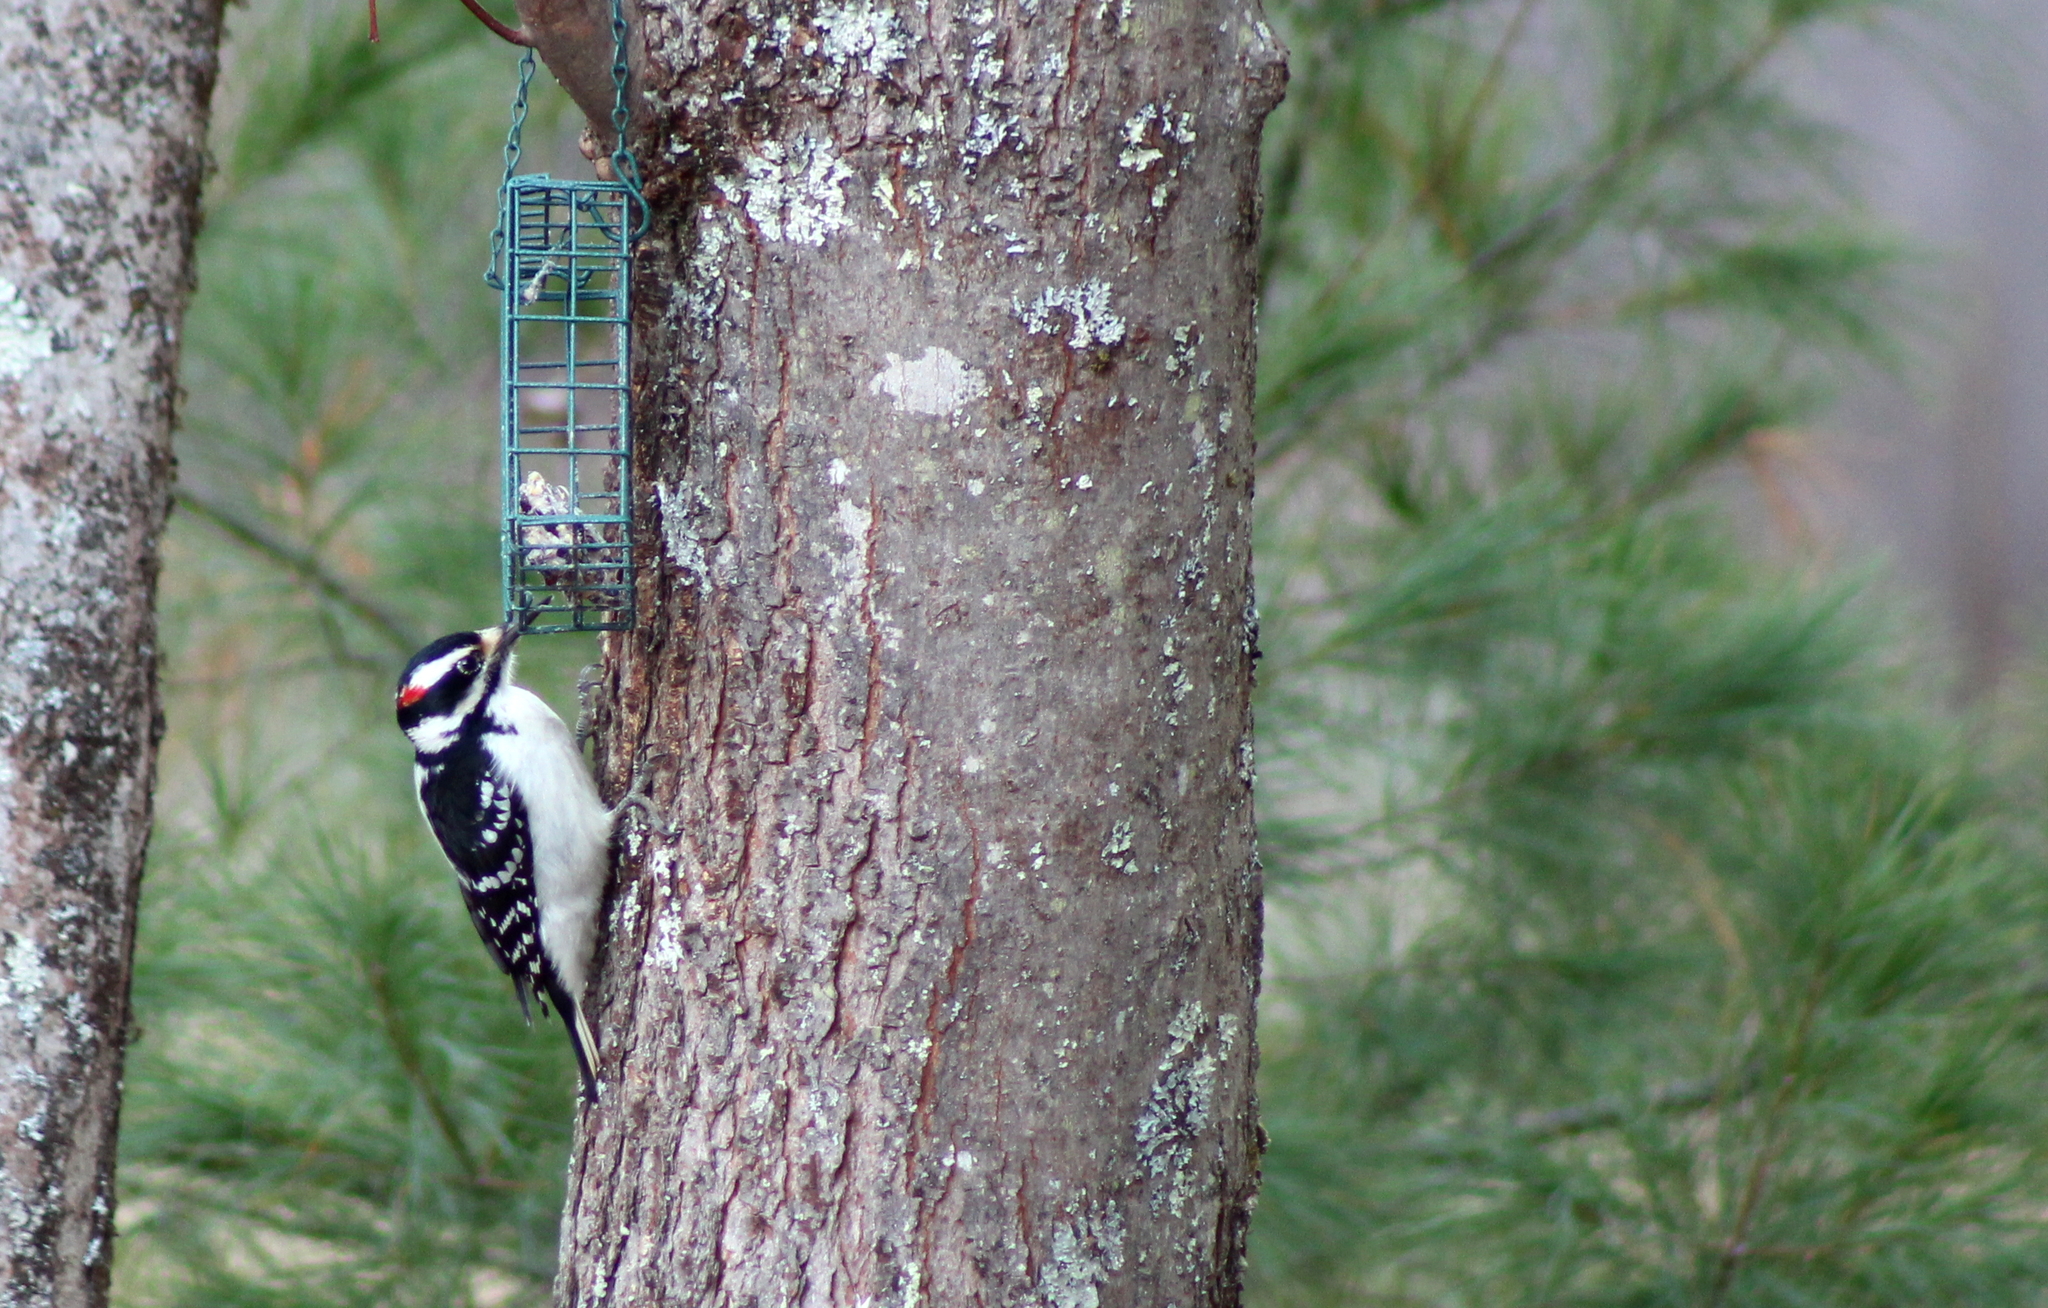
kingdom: Animalia
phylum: Chordata
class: Aves
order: Piciformes
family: Picidae
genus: Leuconotopicus
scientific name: Leuconotopicus villosus
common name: Hairy woodpecker
